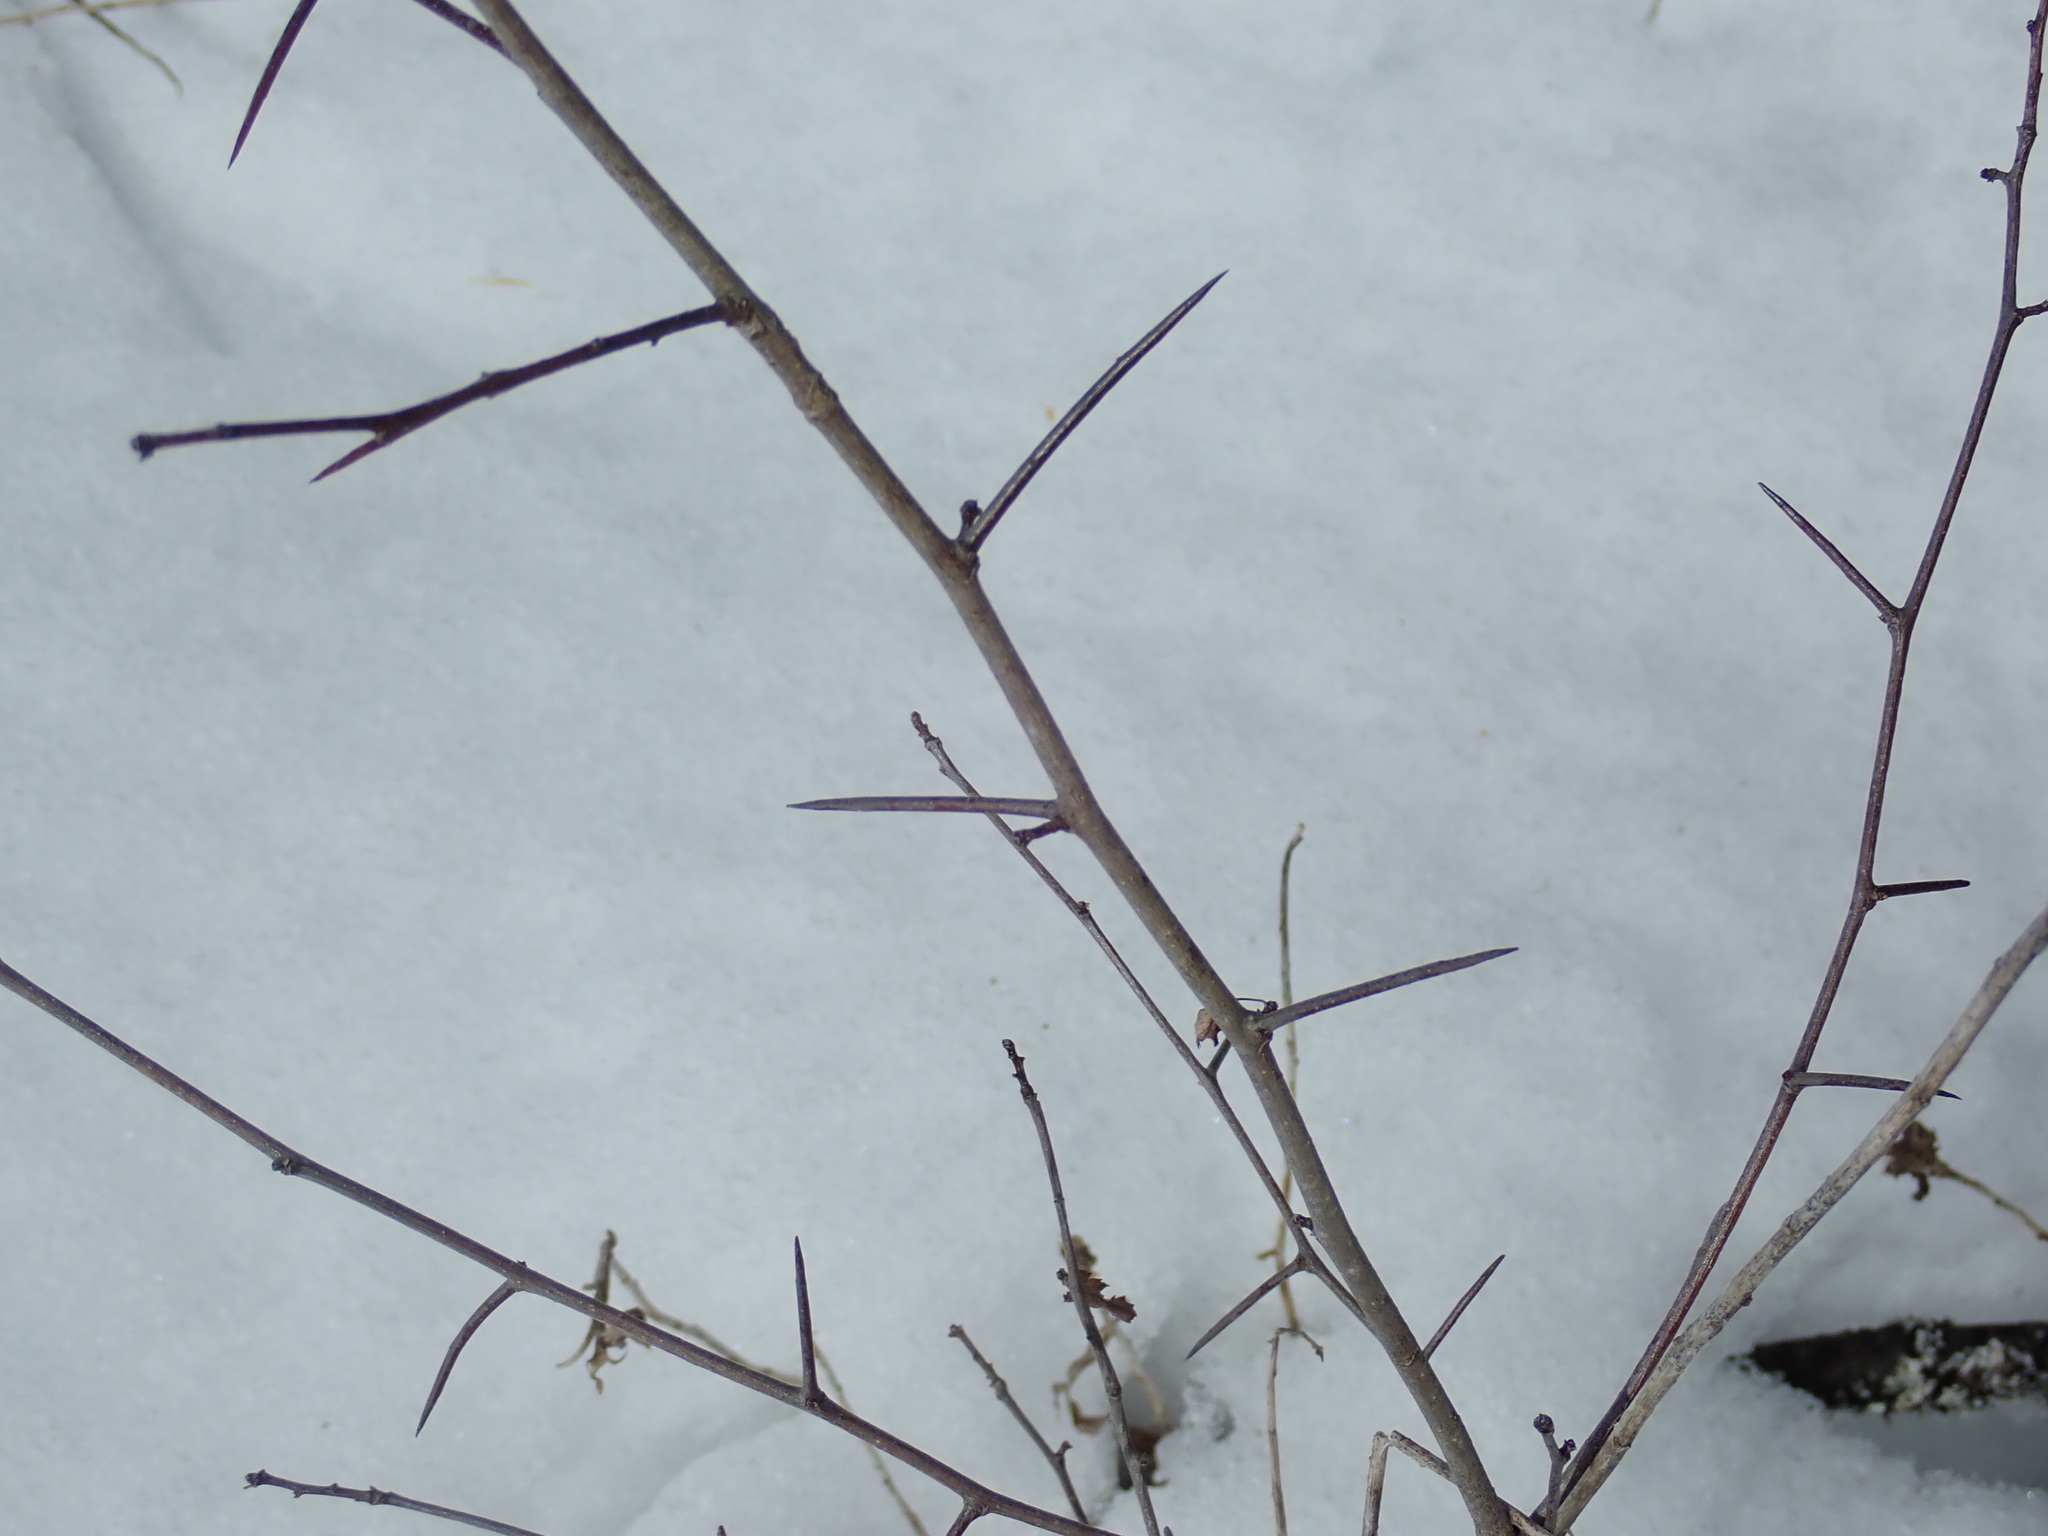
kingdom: Plantae
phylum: Tracheophyta
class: Magnoliopsida
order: Rosales
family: Rosaceae
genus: Crataegus
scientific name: Crataegus
